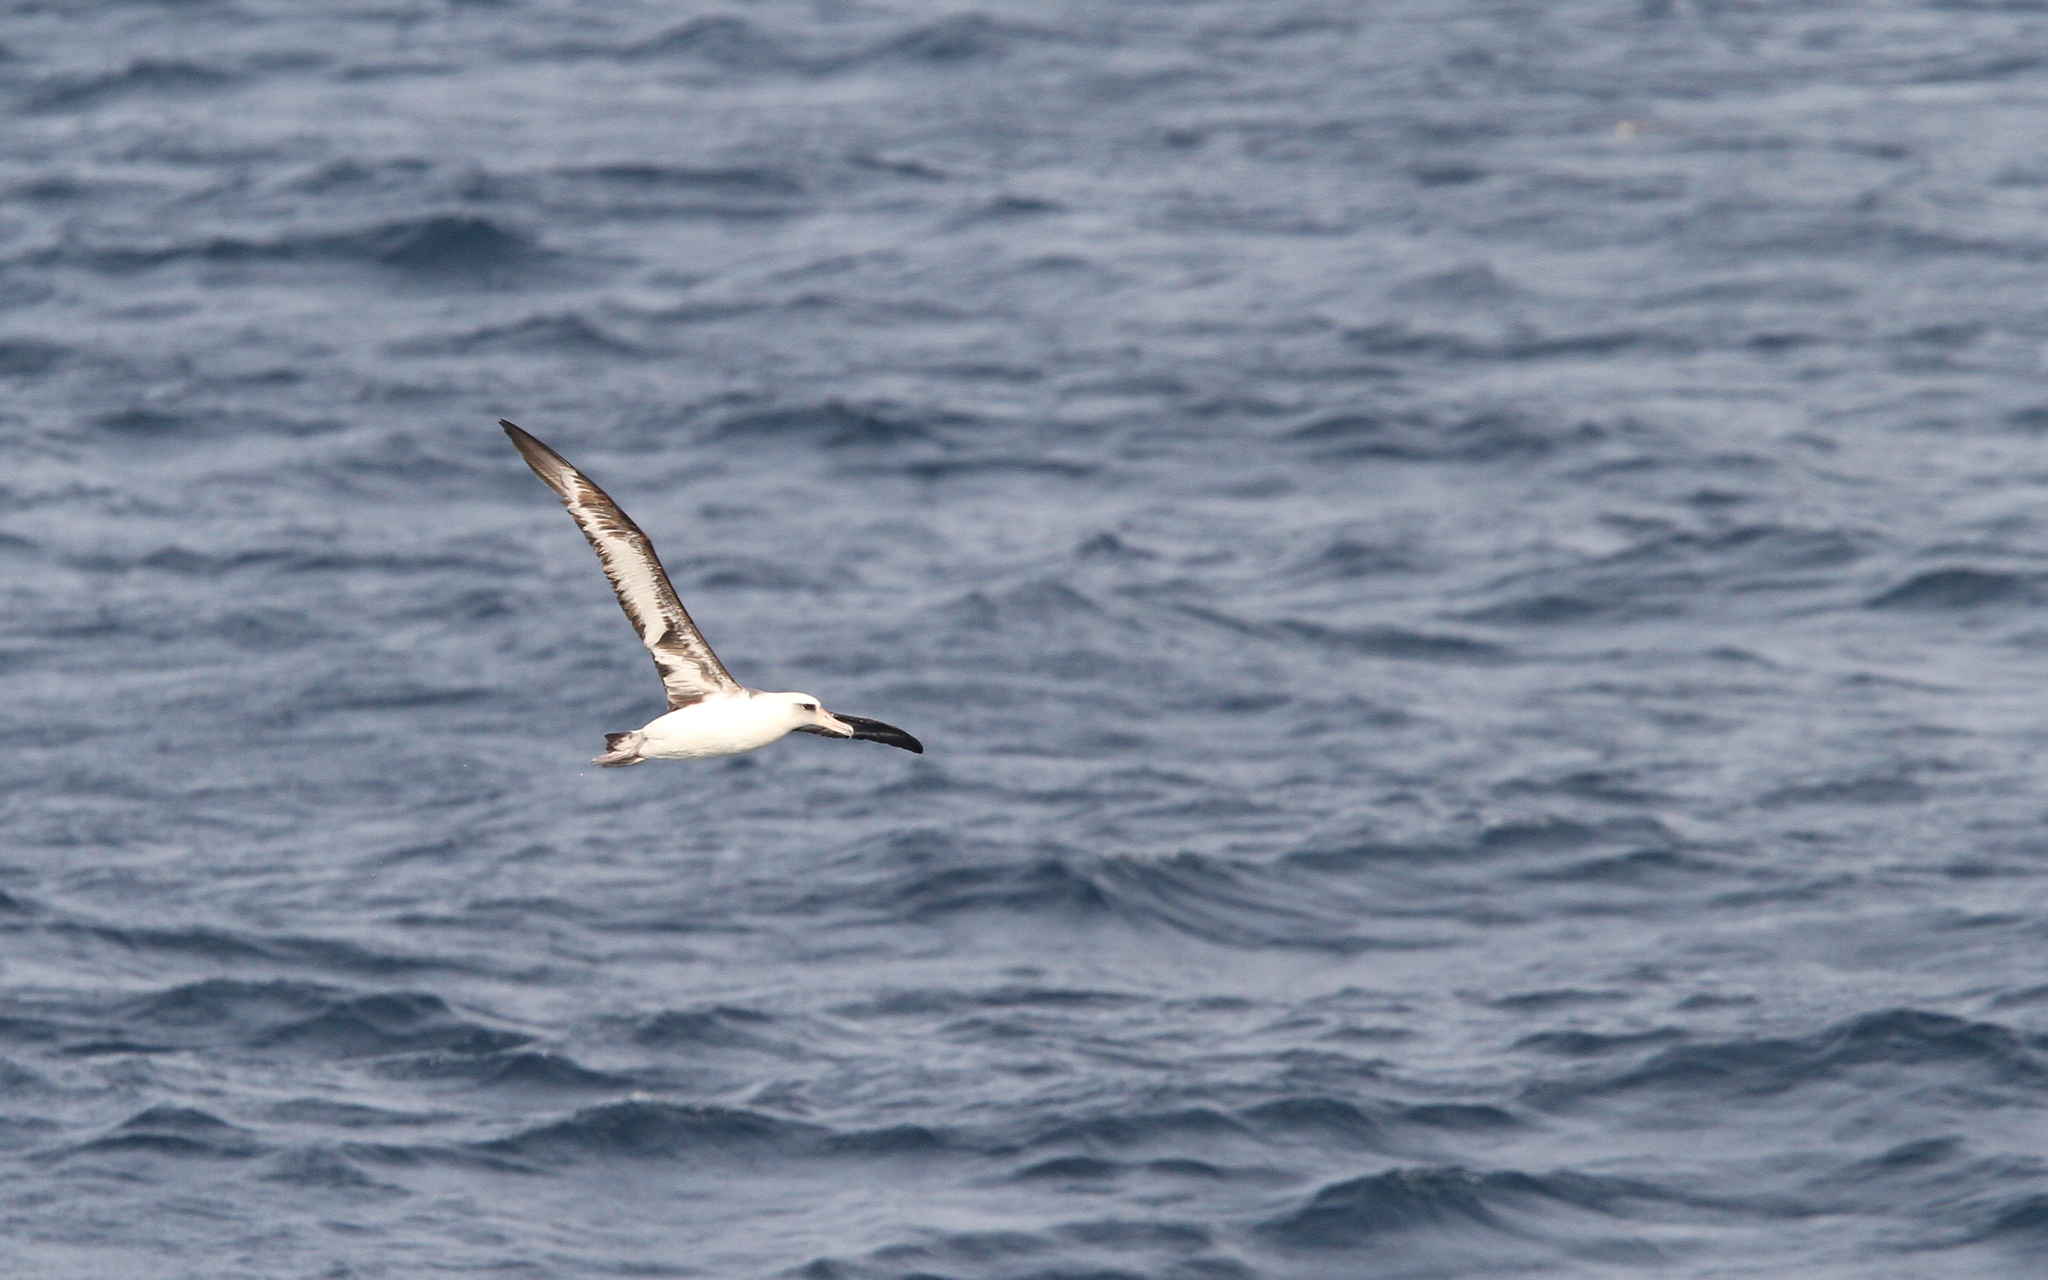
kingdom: Animalia
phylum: Chordata
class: Aves
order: Procellariiformes
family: Diomedeidae
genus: Phoebastria
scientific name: Phoebastria immutabilis
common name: Laysan albatross
